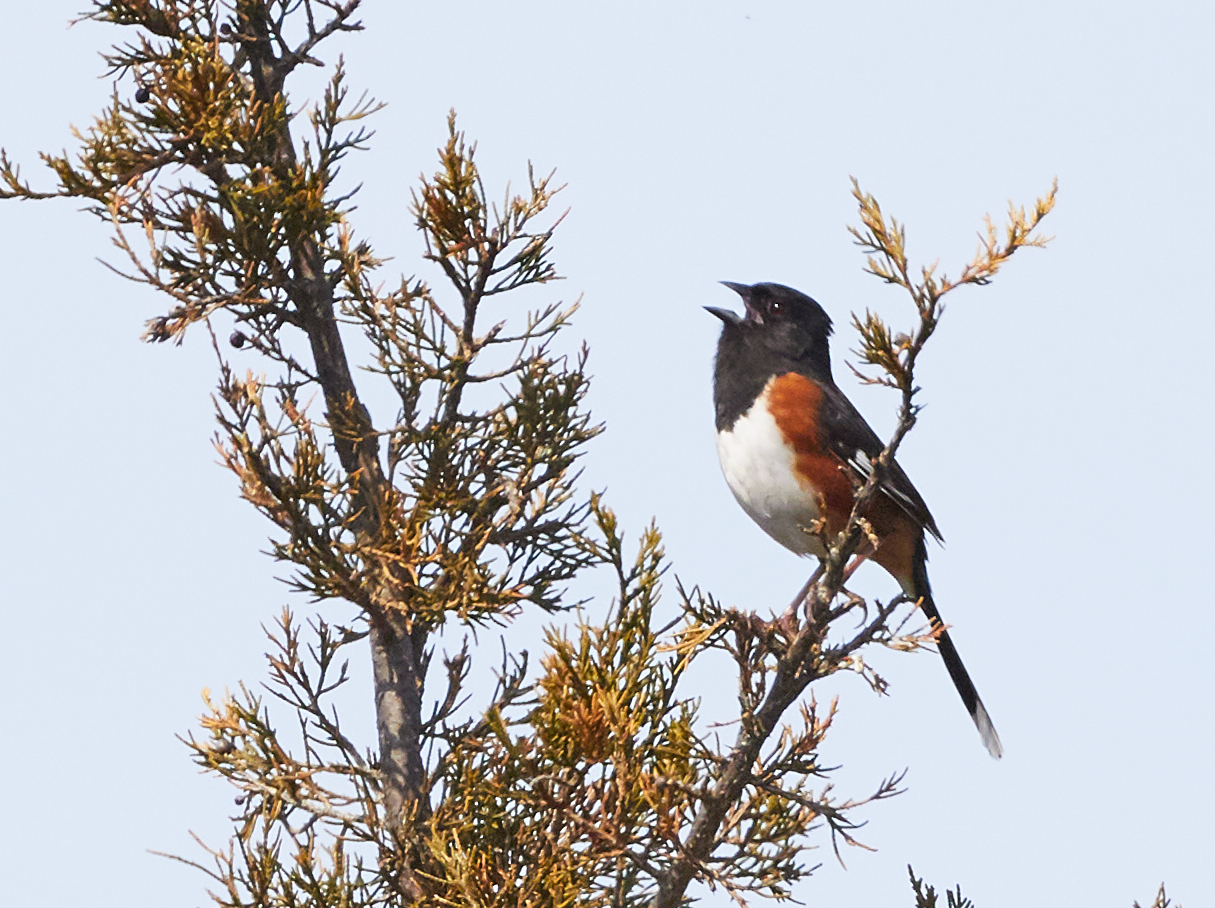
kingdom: Animalia
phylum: Chordata
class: Aves
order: Passeriformes
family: Passerellidae
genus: Pipilo
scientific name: Pipilo erythrophthalmus
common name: Eastern towhee
